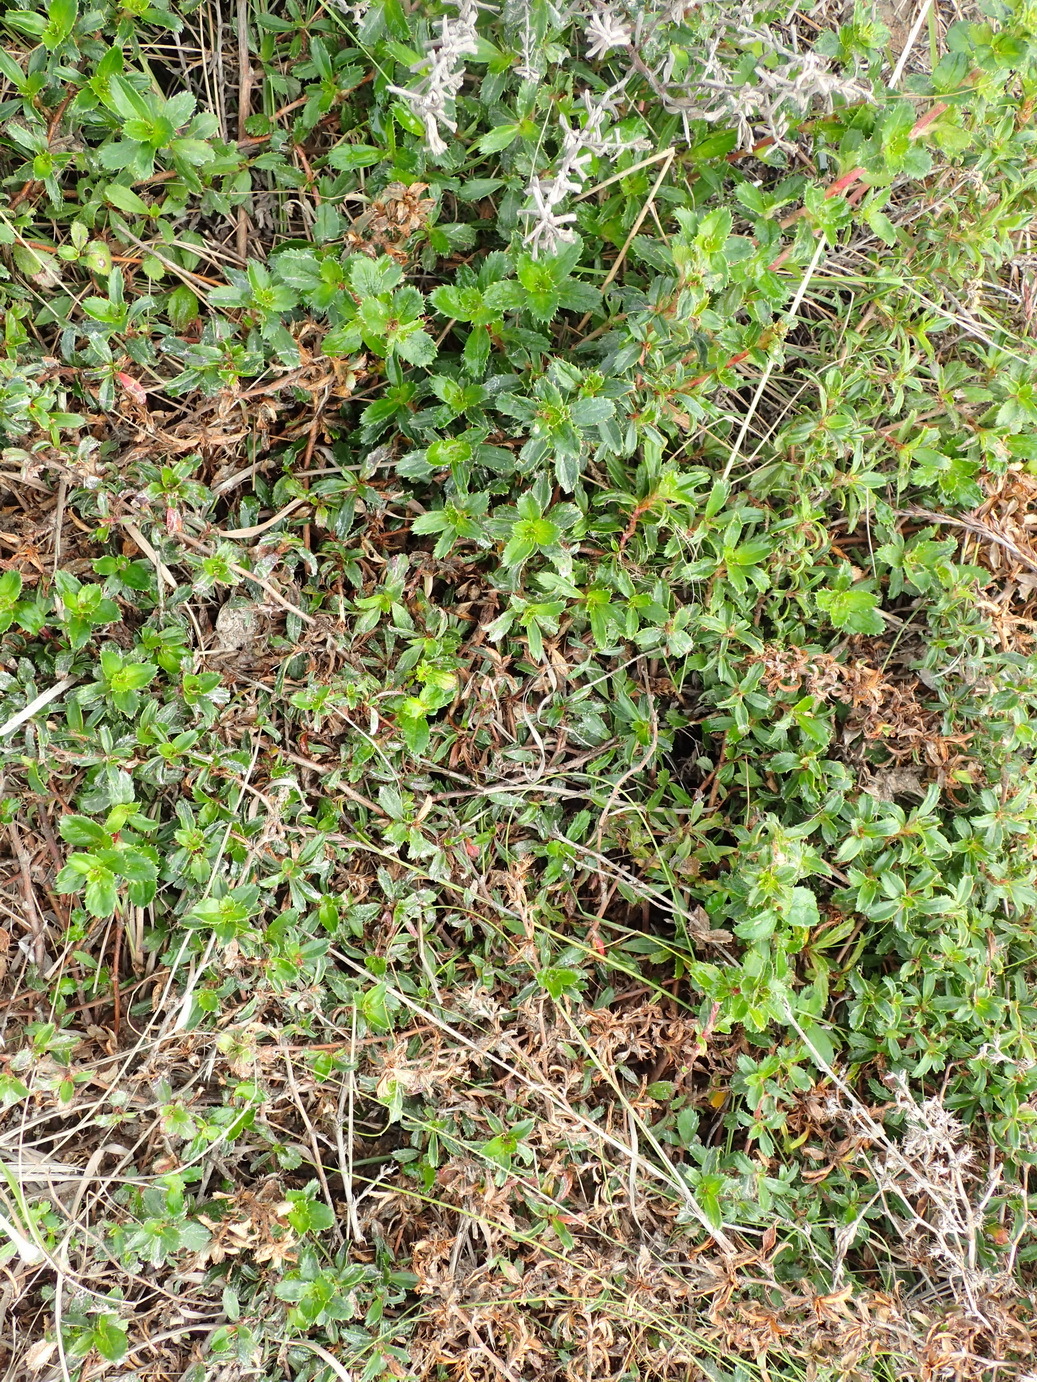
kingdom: Plantae
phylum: Tracheophyta
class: Magnoliopsida
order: Rosales
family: Rosaceae
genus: Cliffortia
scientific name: Cliffortia ferruginea
